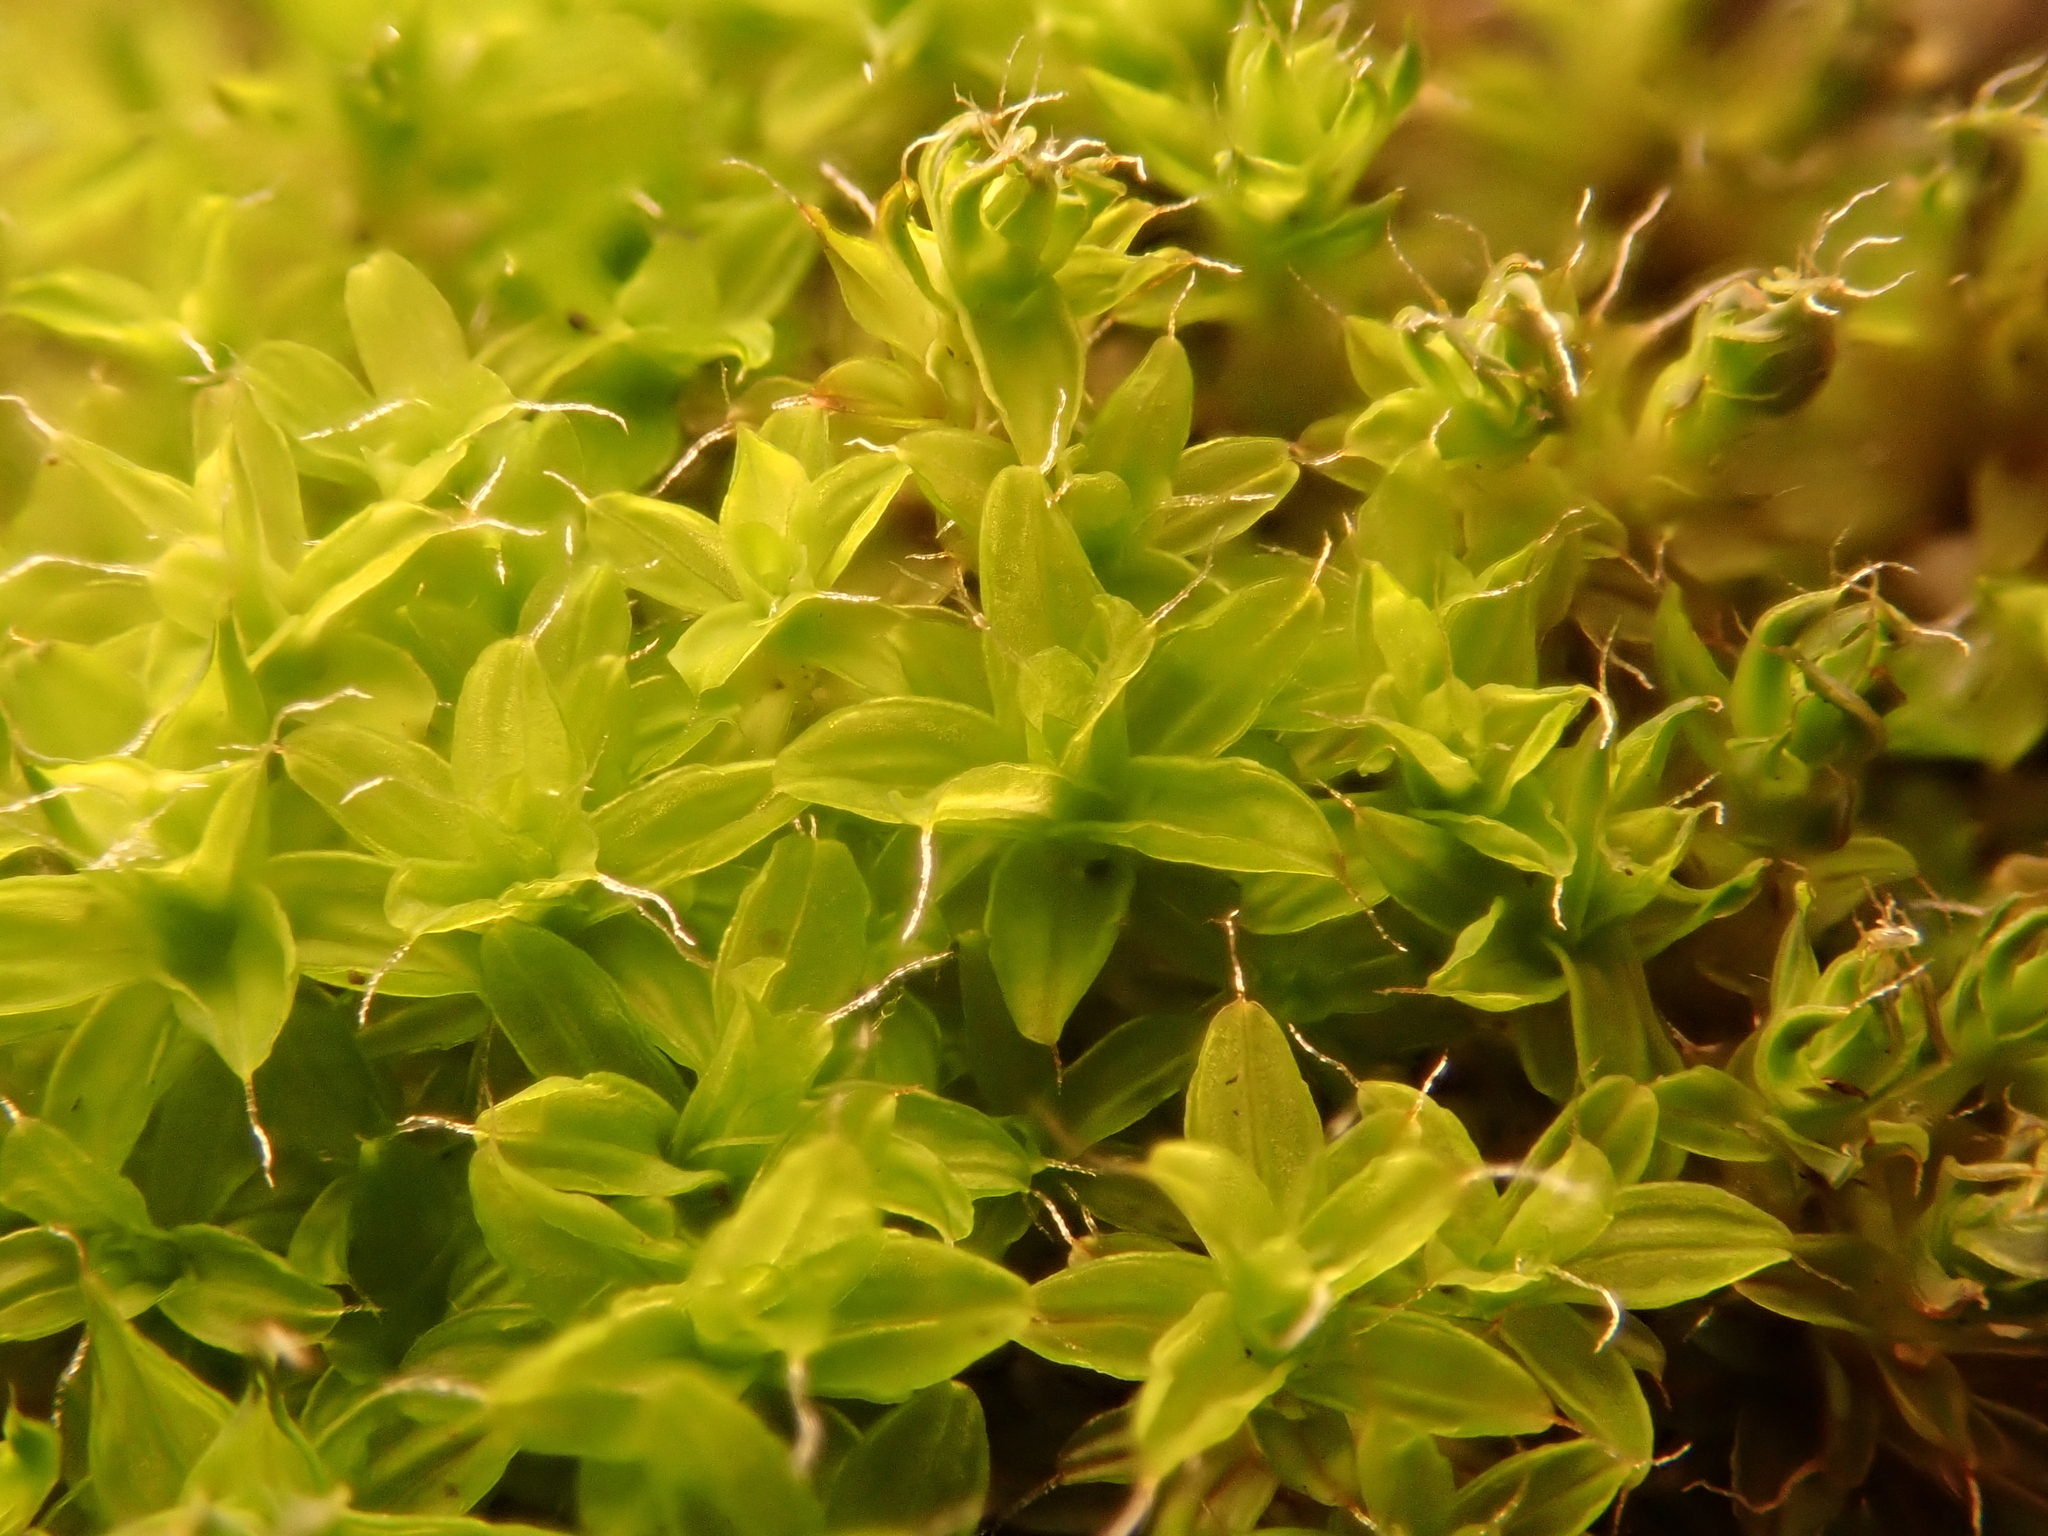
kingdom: Plantae
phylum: Bryophyta
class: Bryopsida
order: Pottiales
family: Pottiaceae
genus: Syntrichia
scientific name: Syntrichia ruralis
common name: Sidewalk screw moss
